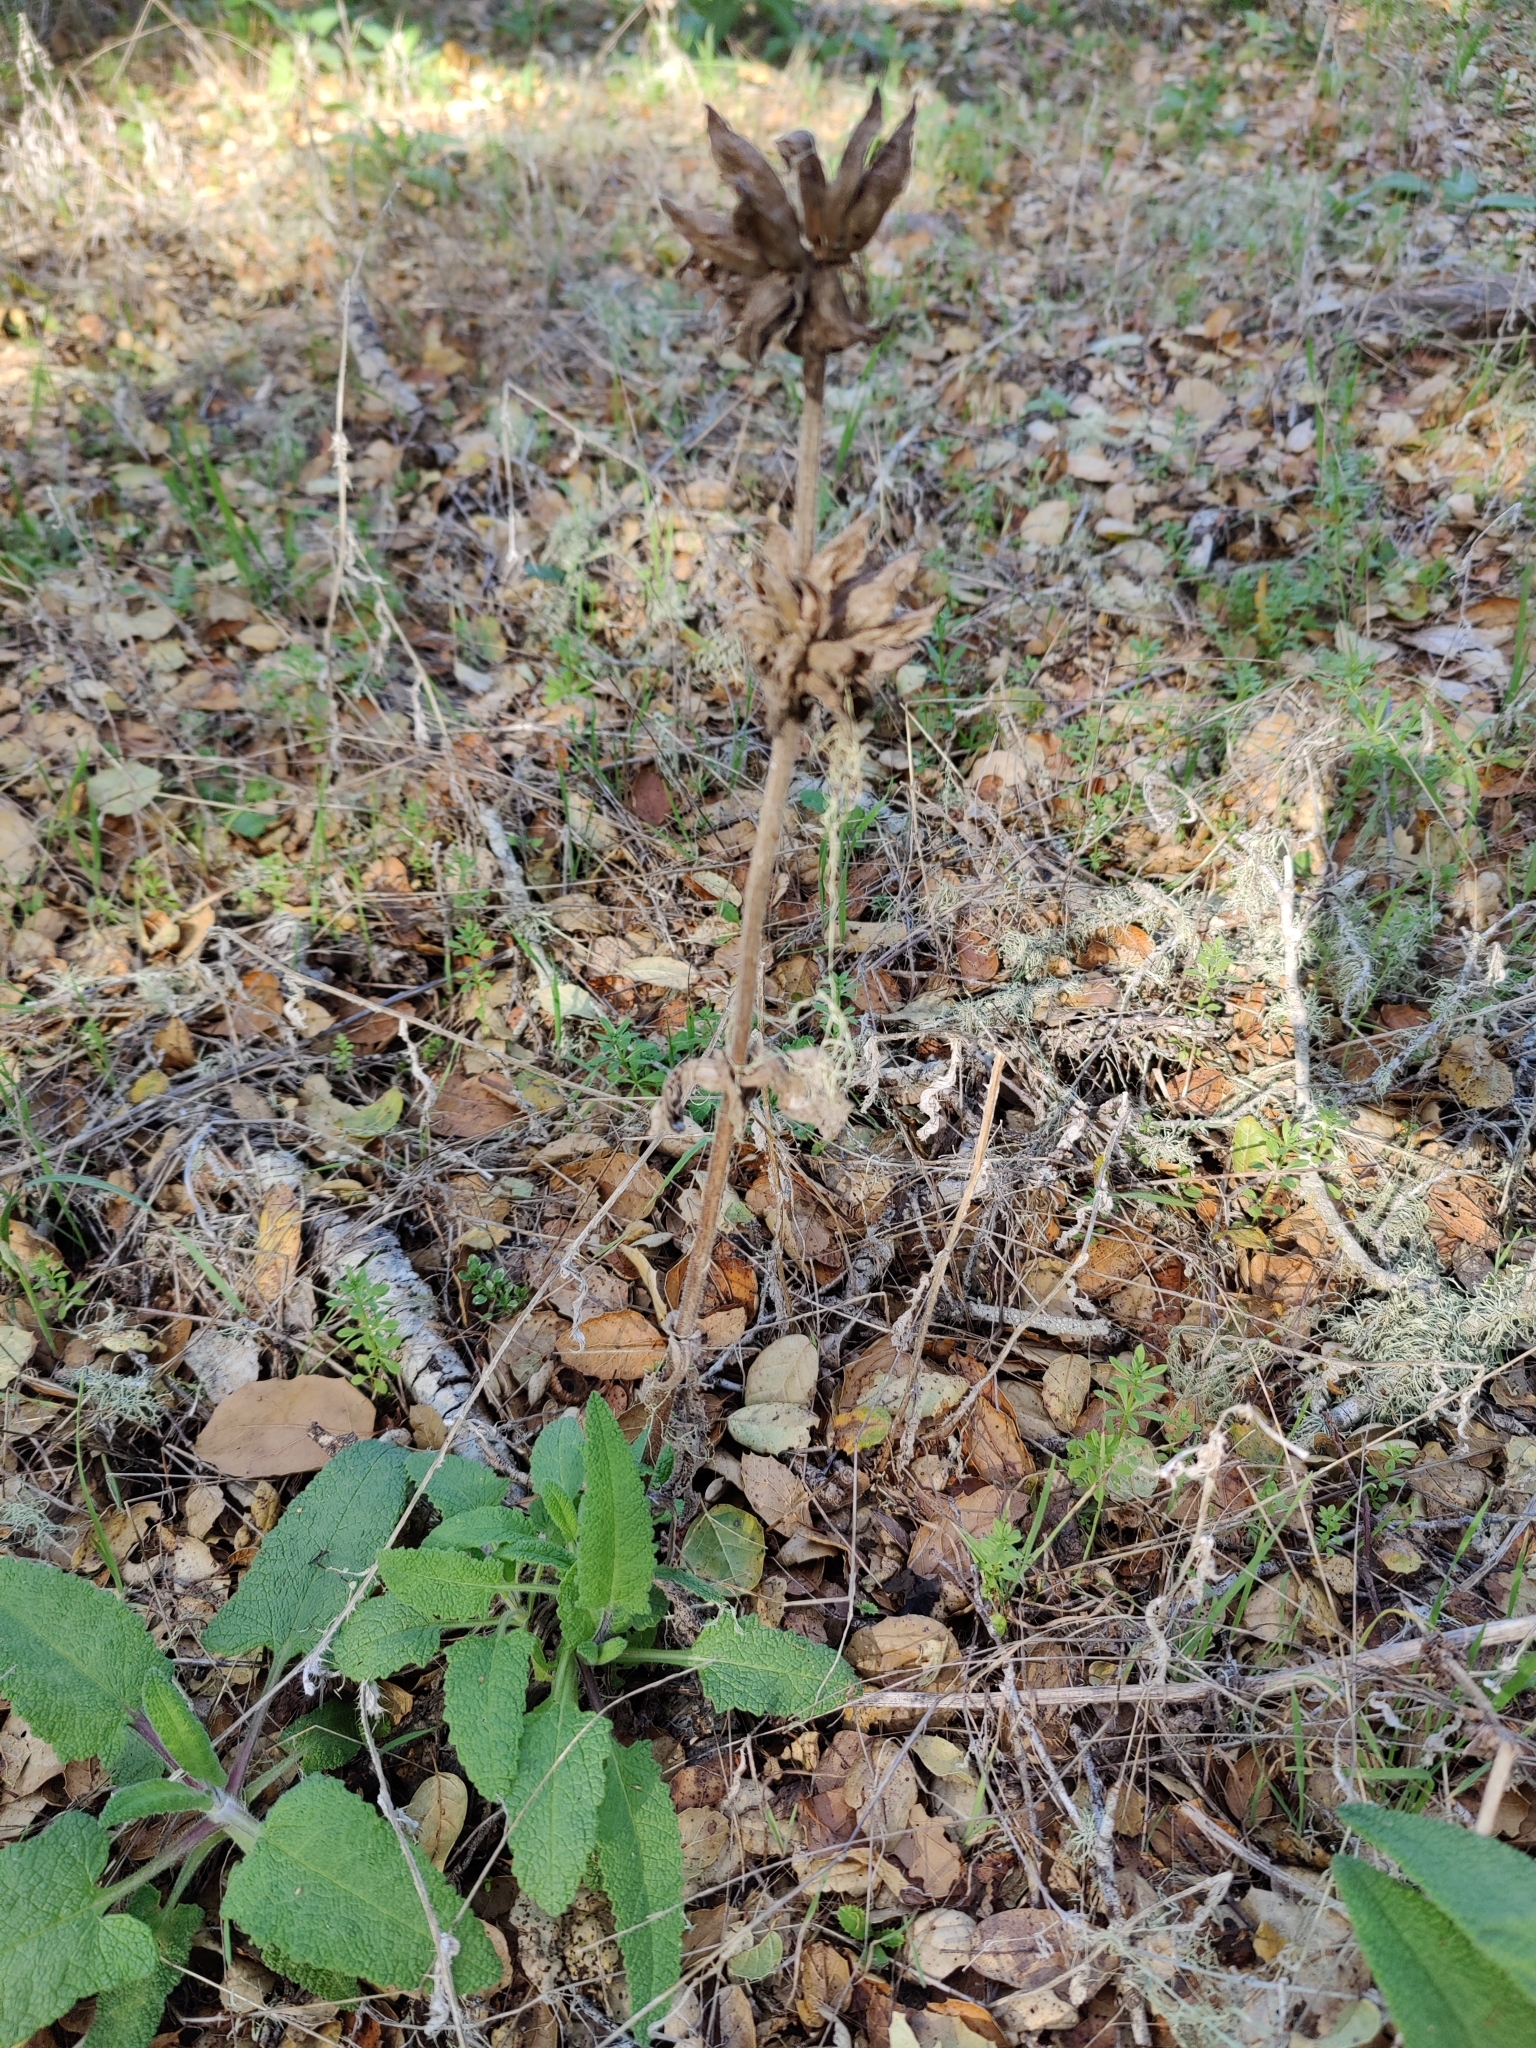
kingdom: Plantae
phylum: Tracheophyta
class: Magnoliopsida
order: Lamiales
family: Lamiaceae
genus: Salvia
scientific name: Salvia spathacea
